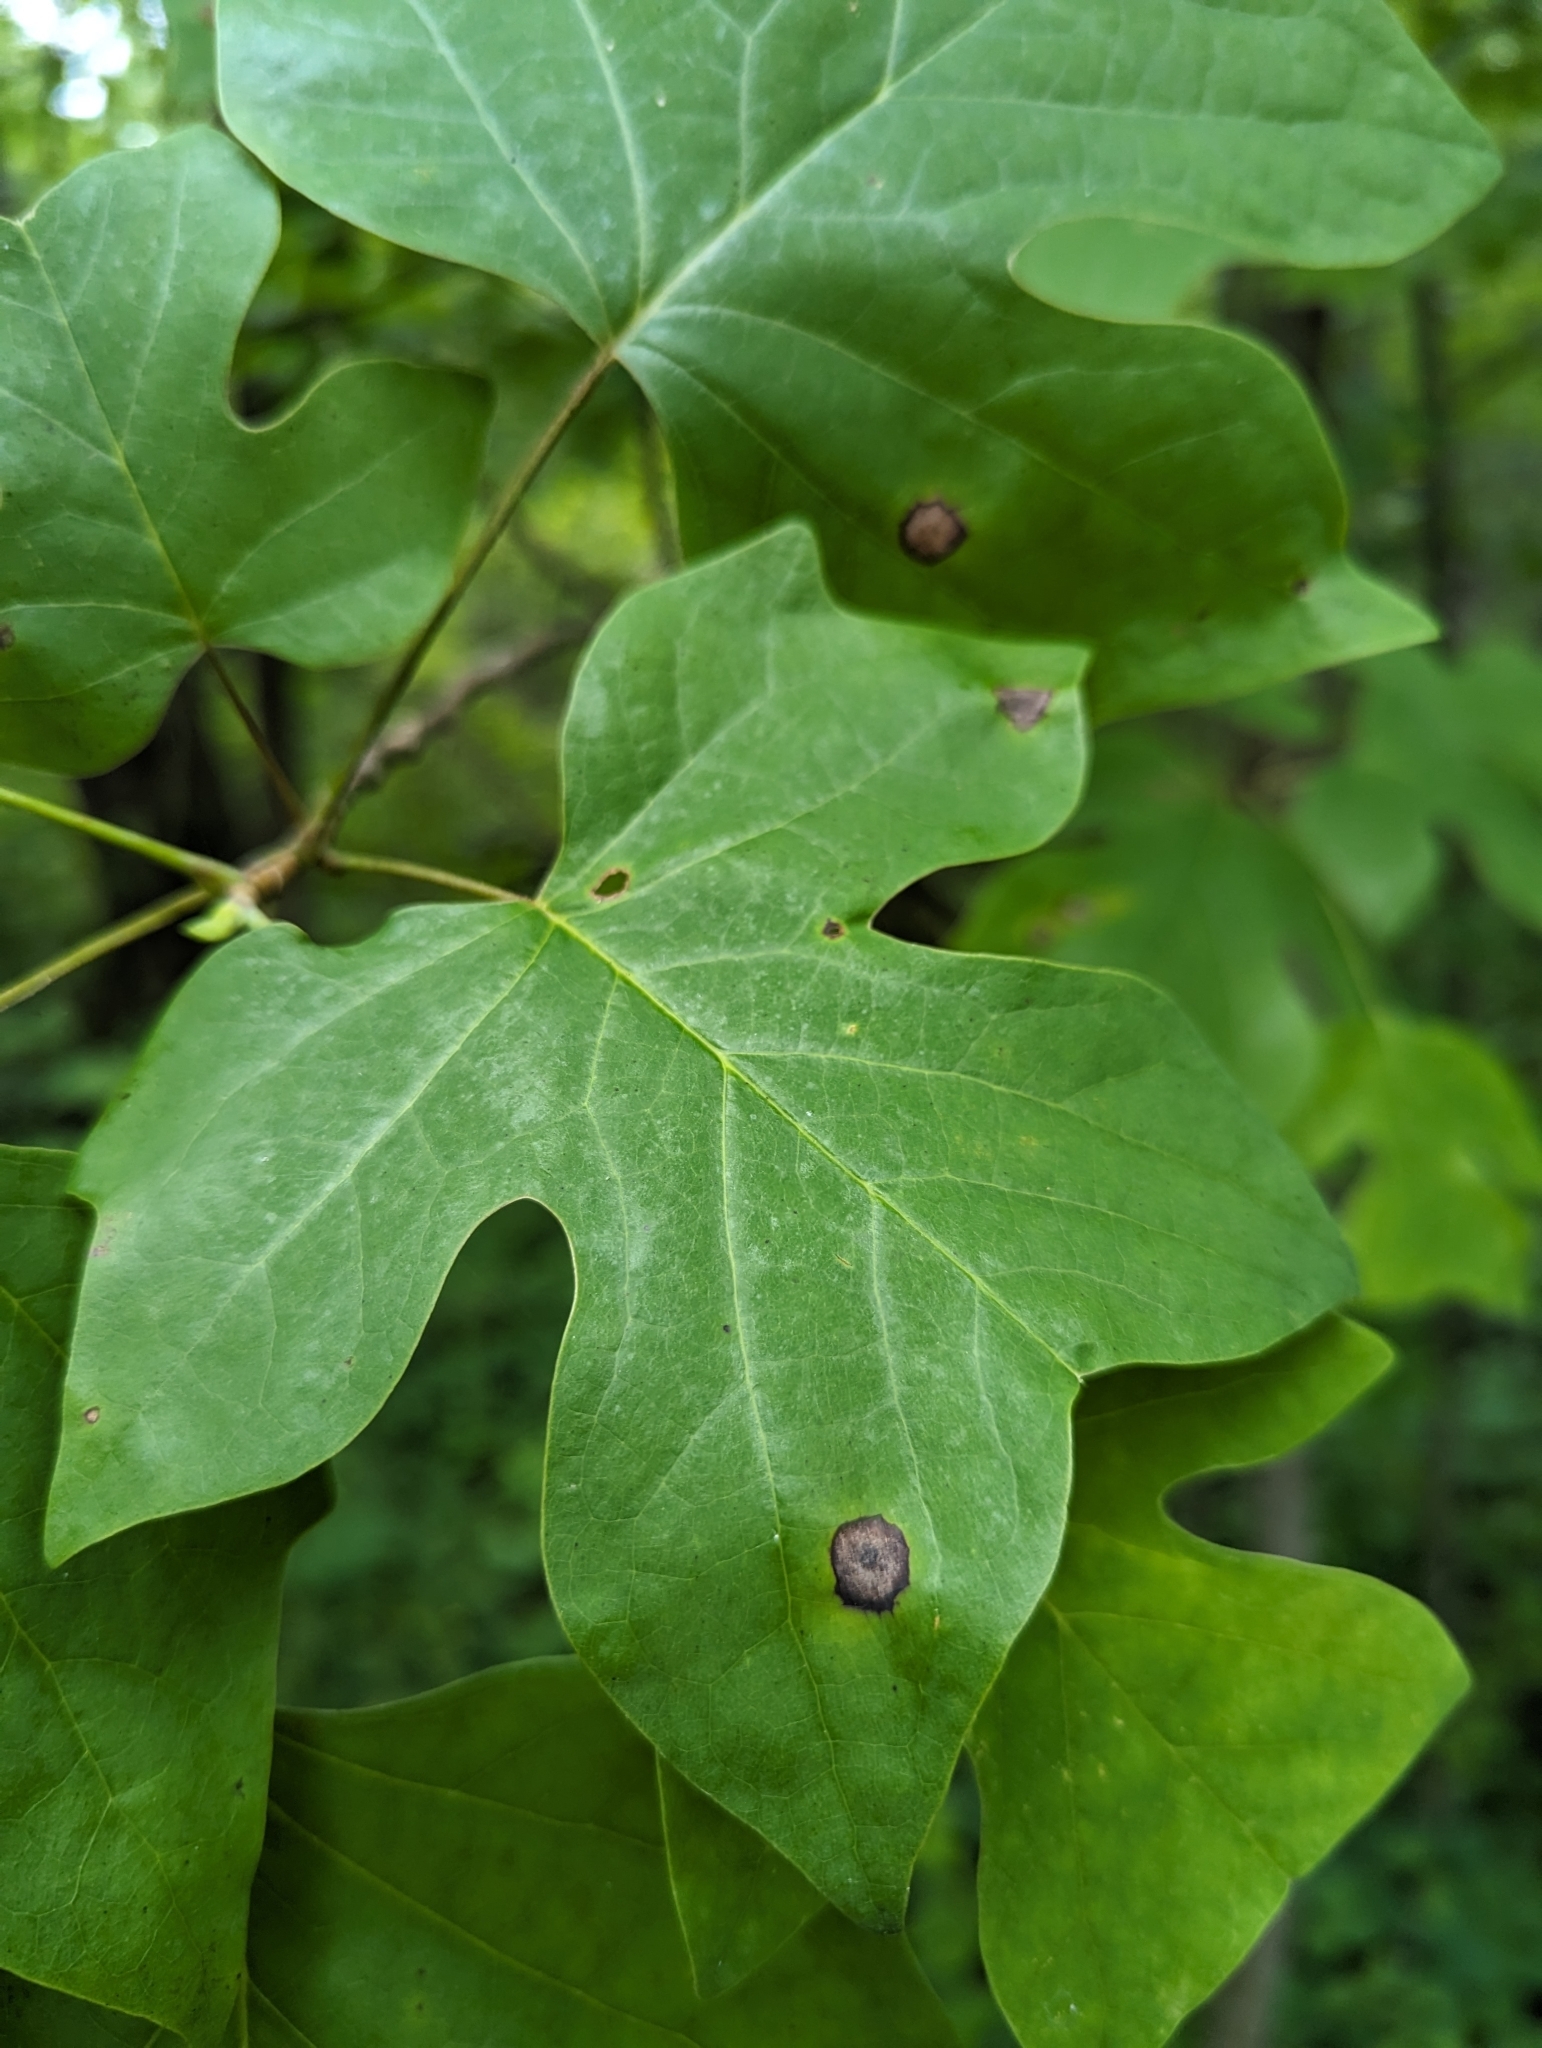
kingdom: Animalia
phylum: Arthropoda
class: Insecta
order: Diptera
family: Cecidomyiidae
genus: Resseliella
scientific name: Resseliella liriodendri
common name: Tulip tree leaf spot gall midge
